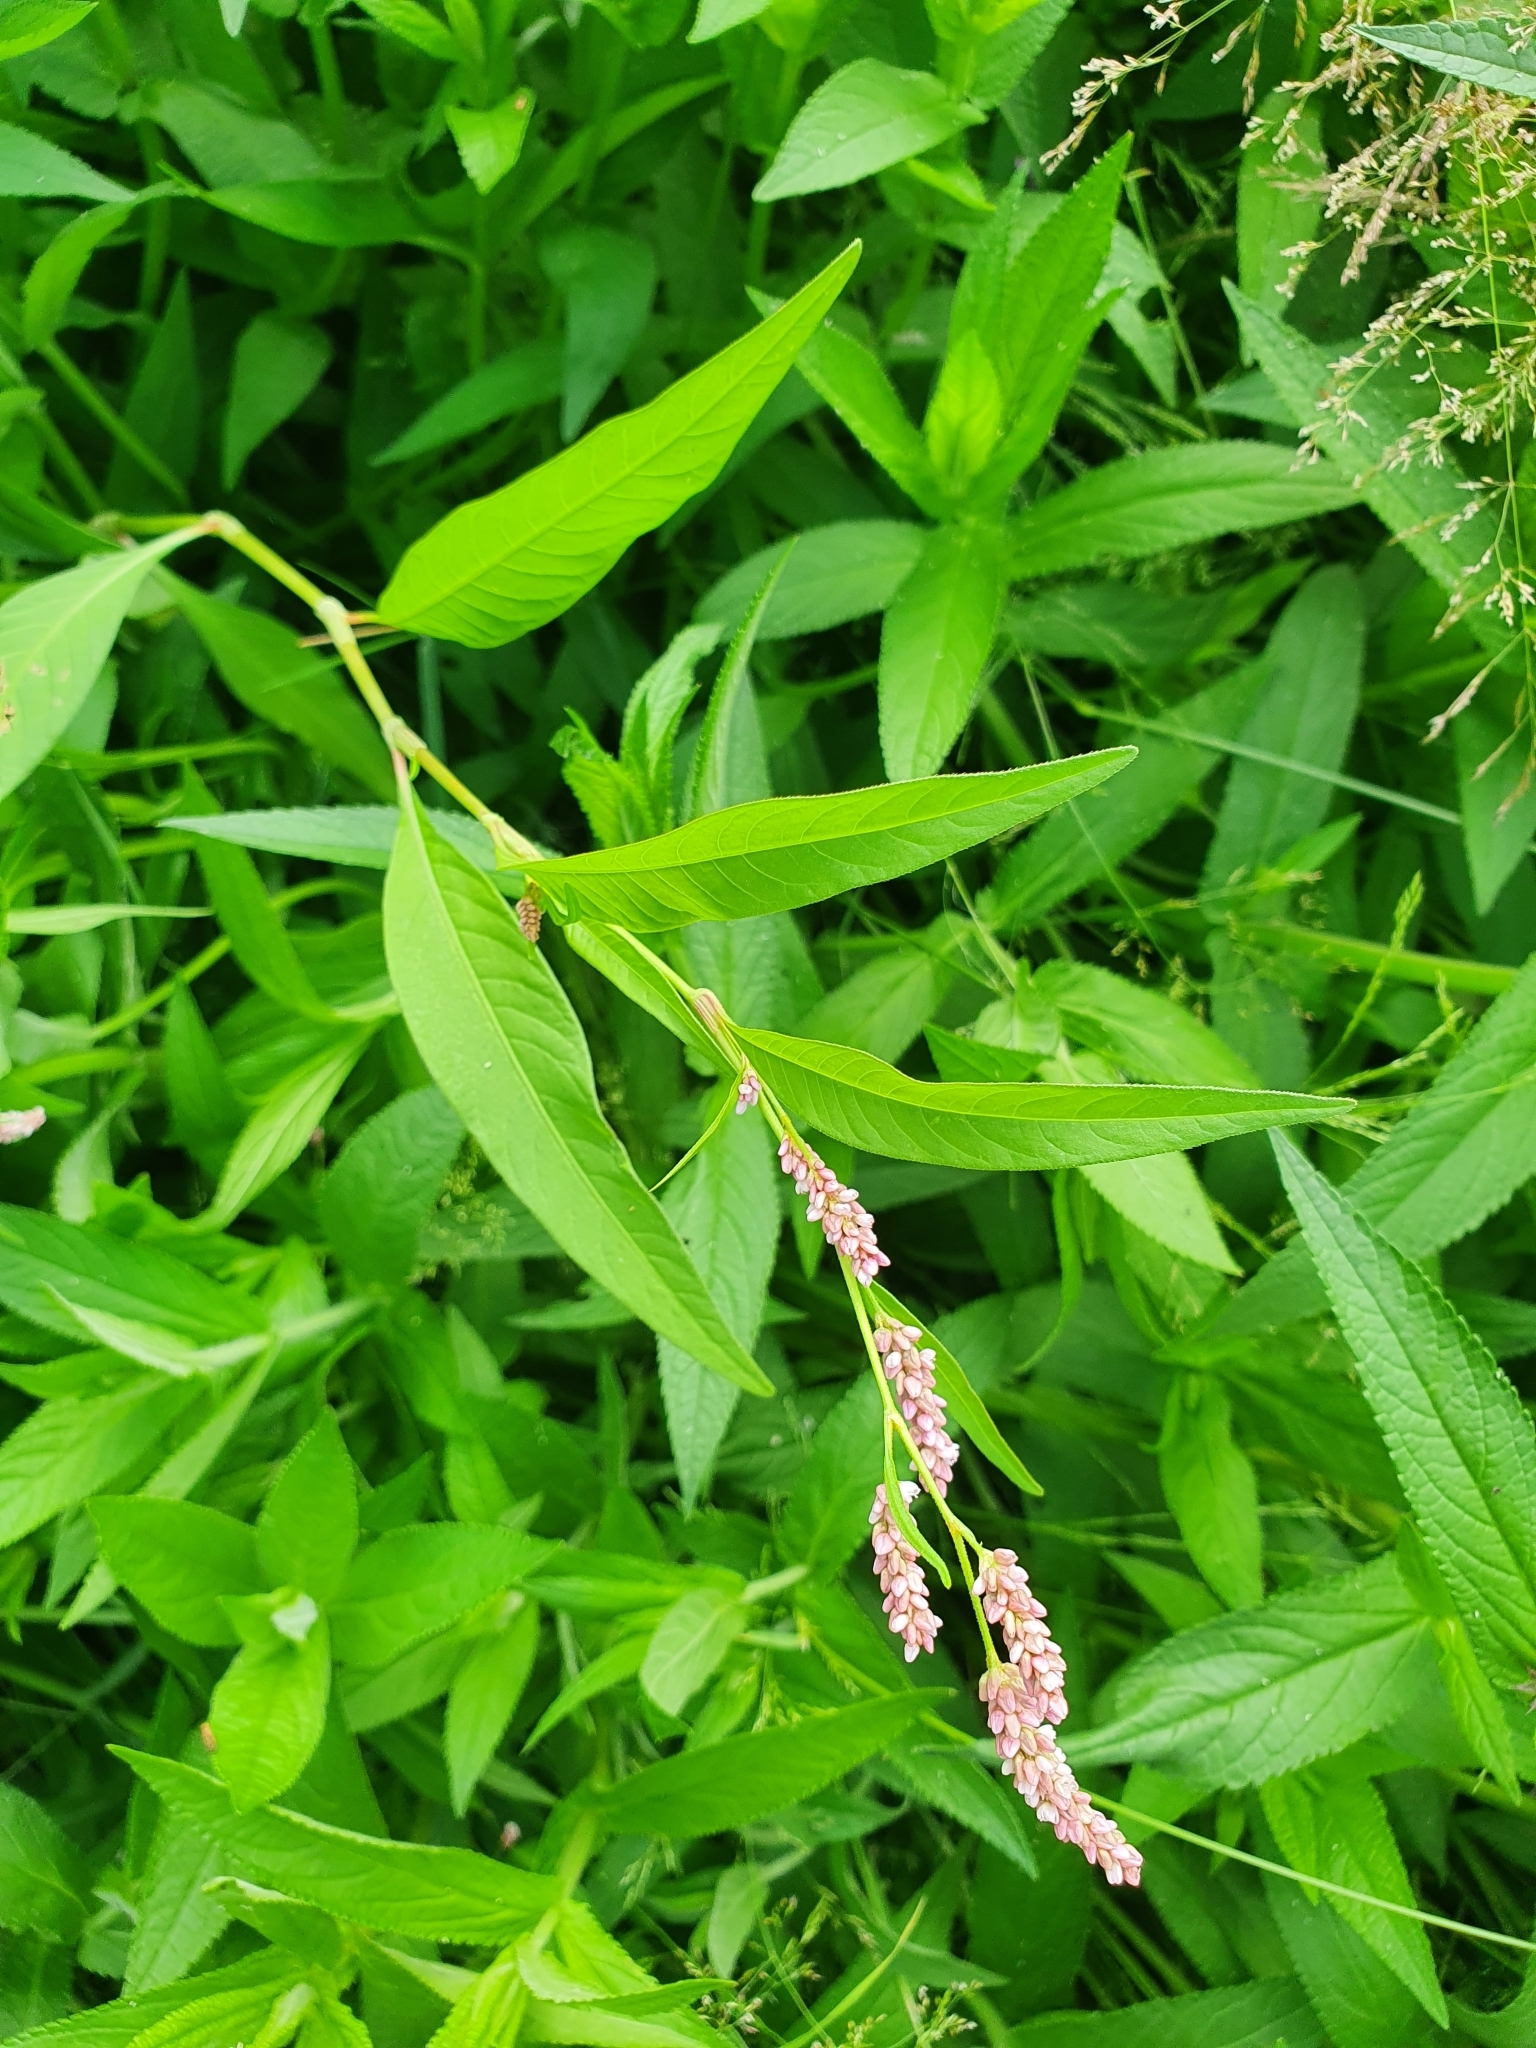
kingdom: Plantae
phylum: Tracheophyta
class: Magnoliopsida
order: Caryophyllales
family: Polygonaceae
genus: Persicaria
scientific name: Persicaria lapathifolia
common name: Curlytop knotweed
